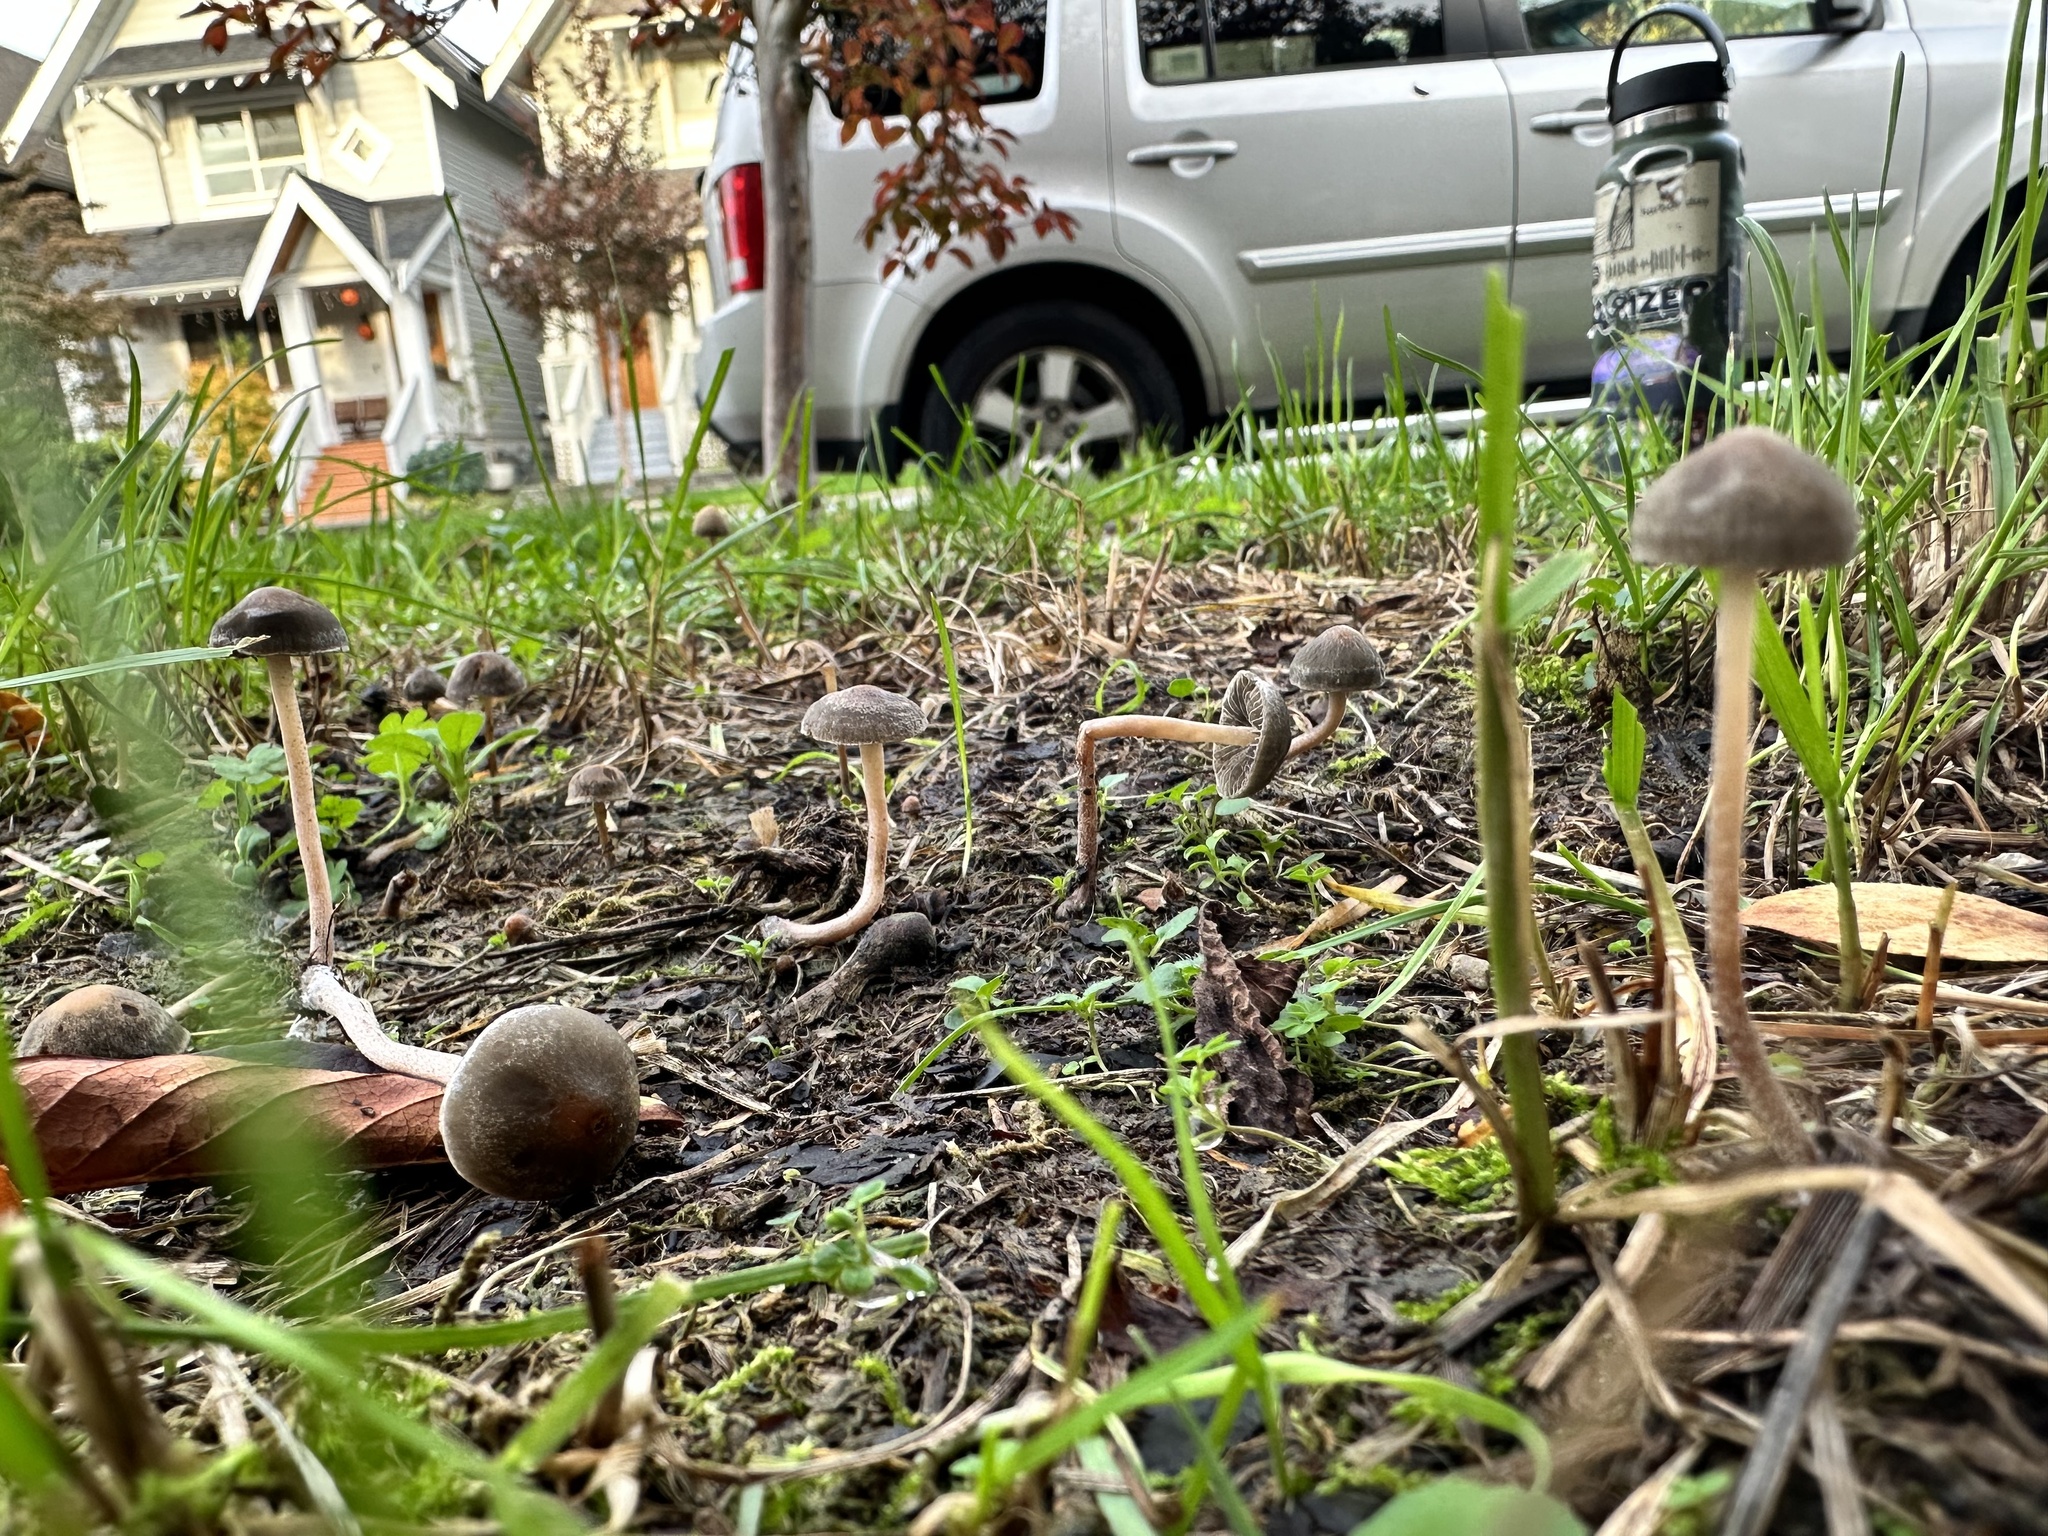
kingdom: Fungi
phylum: Basidiomycota
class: Agaricomycetes
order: Agaricales
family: Bolbitiaceae
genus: Panaeolus
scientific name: Panaeolus olivaceus
